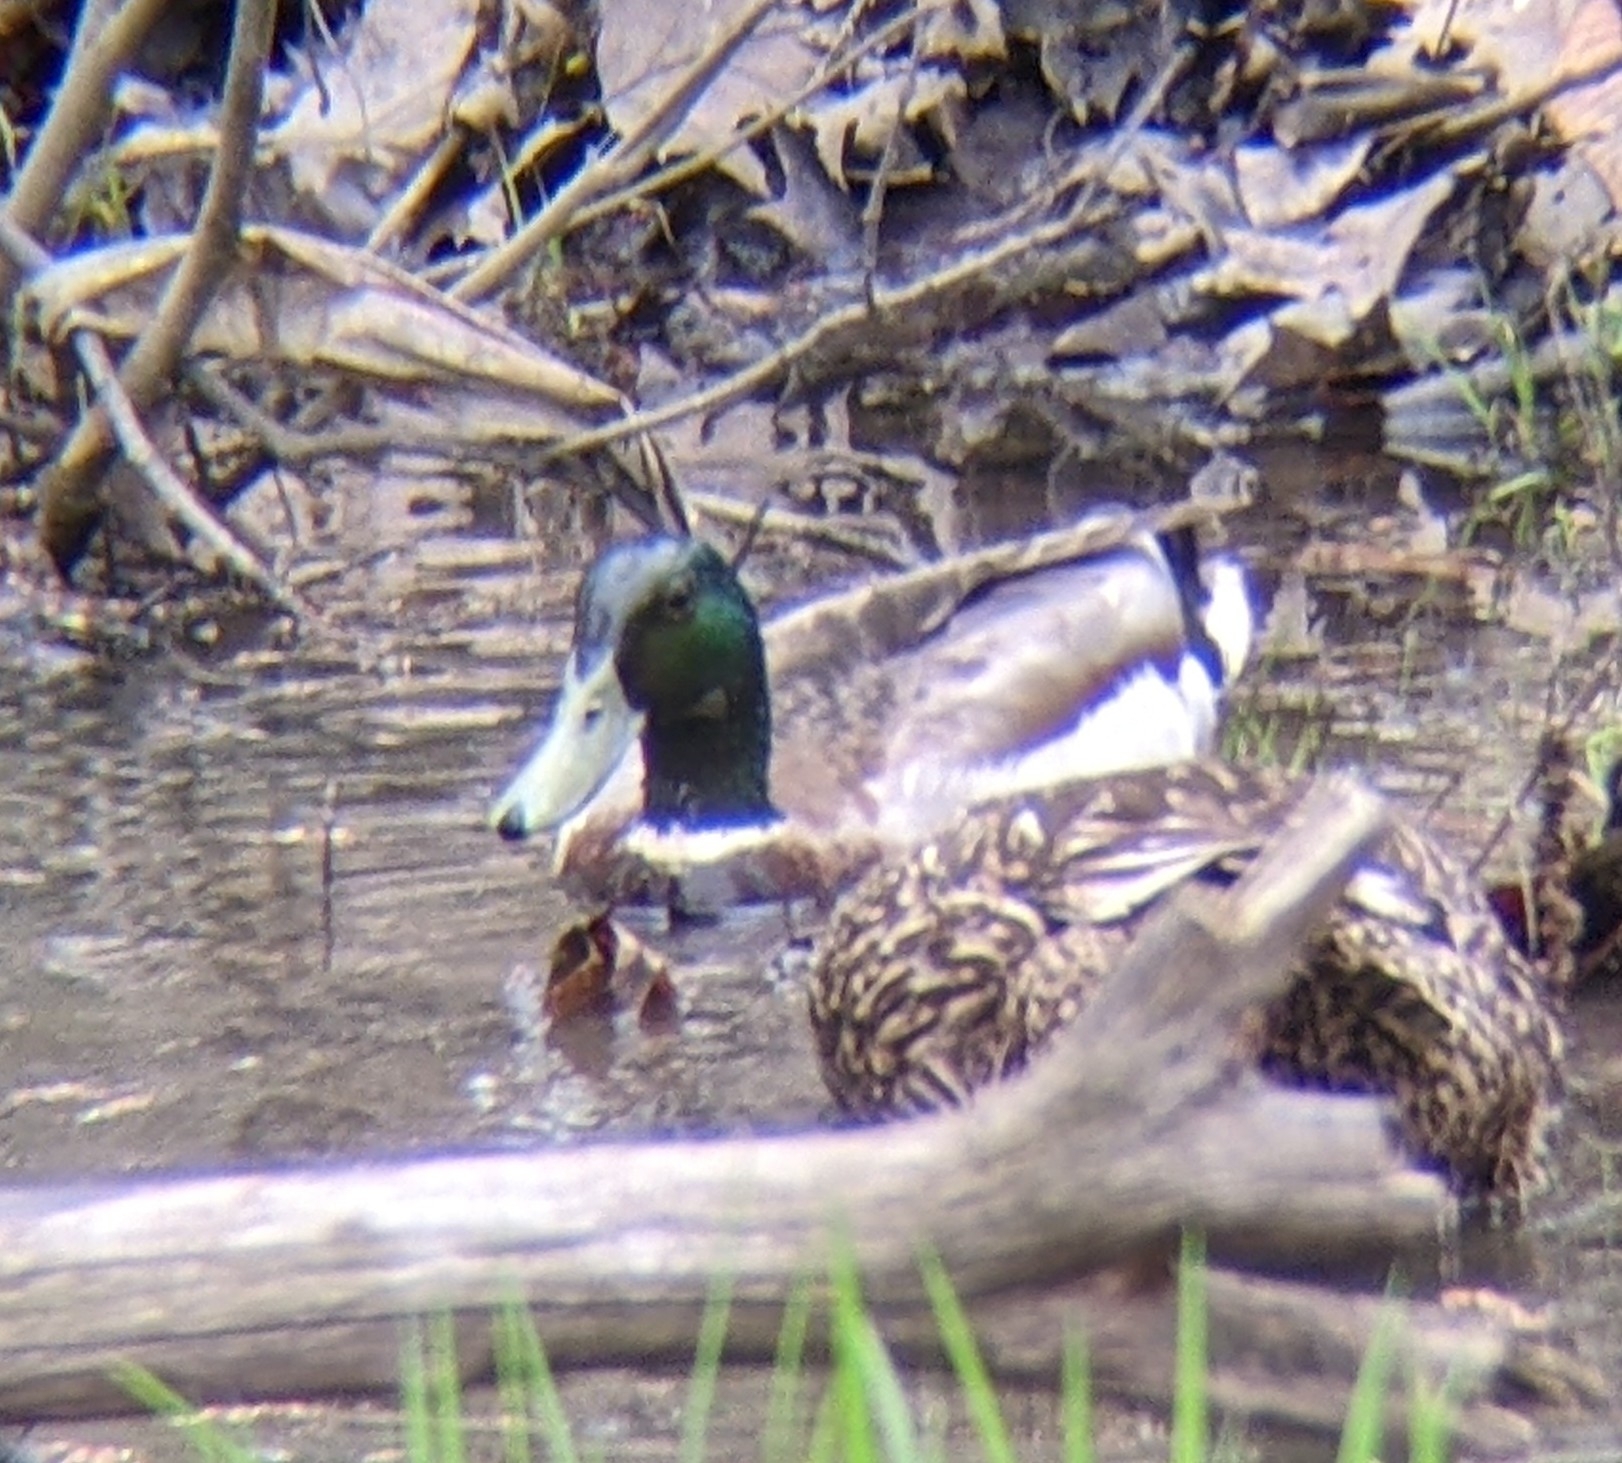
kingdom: Animalia
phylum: Chordata
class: Aves
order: Anseriformes
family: Anatidae
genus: Anas
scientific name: Anas platyrhynchos
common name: Mallard
